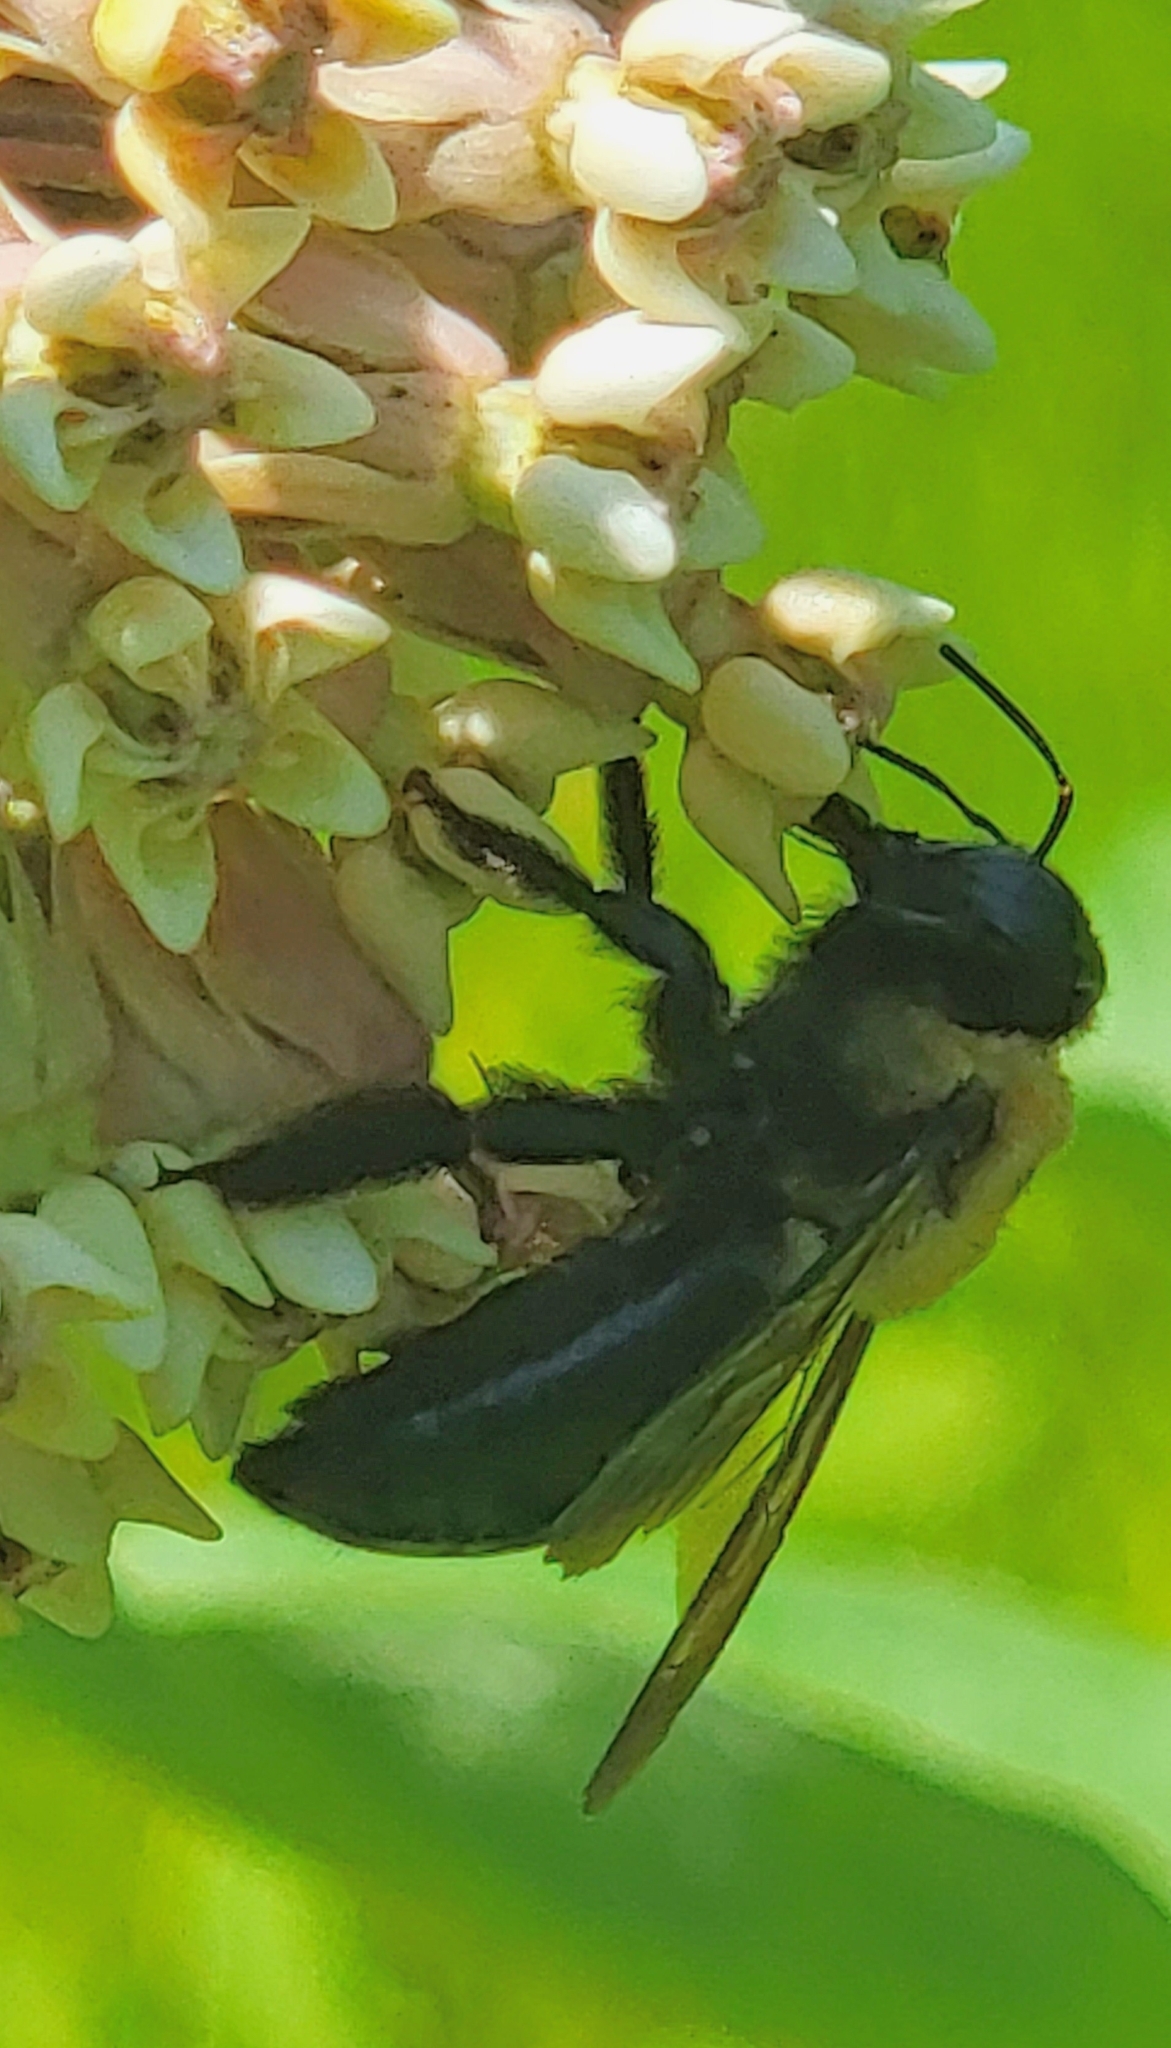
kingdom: Animalia
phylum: Arthropoda
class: Insecta
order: Hymenoptera
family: Apidae
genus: Xylocopa
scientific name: Xylocopa virginica
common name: Carpenter bee
